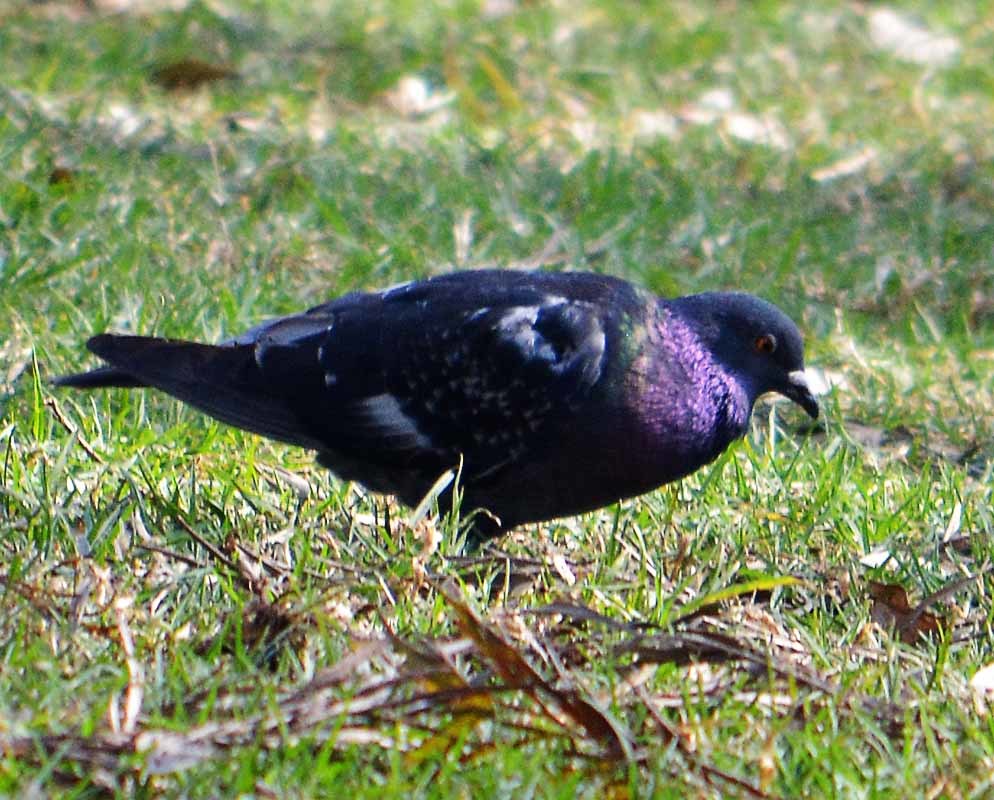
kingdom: Animalia
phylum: Chordata
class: Aves
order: Columbiformes
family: Columbidae
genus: Columba
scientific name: Columba livia
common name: Rock pigeon
